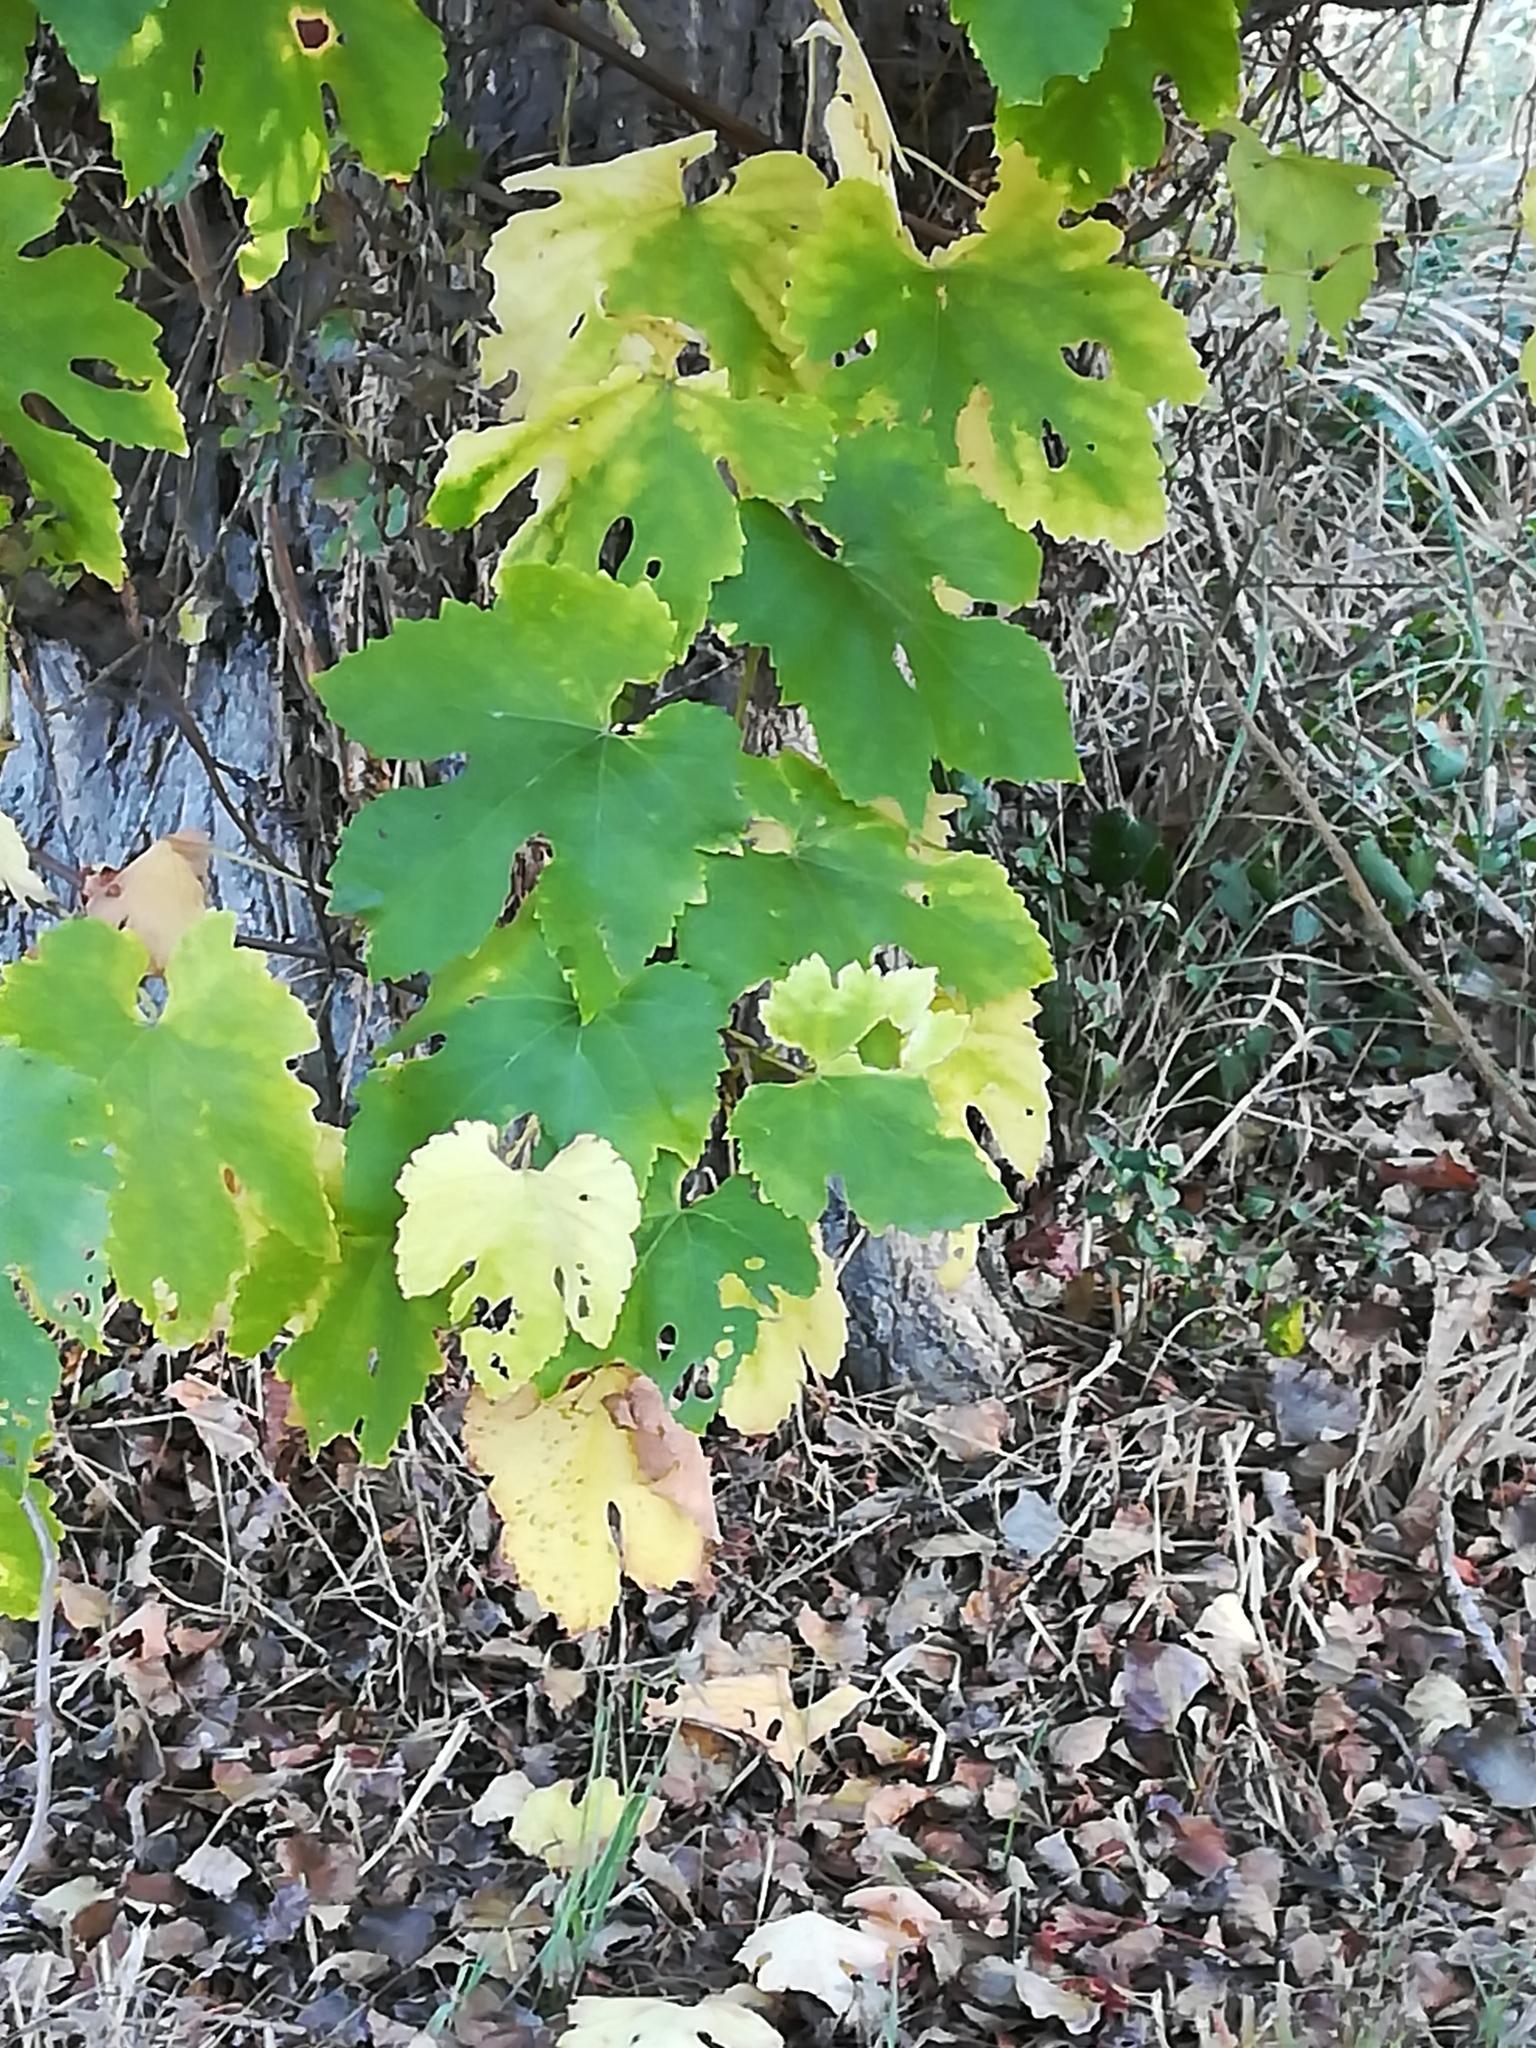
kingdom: Plantae
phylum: Tracheophyta
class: Magnoliopsida
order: Vitales
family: Vitaceae
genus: Vitis
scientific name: Vitis vinifera
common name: Grape-vine
